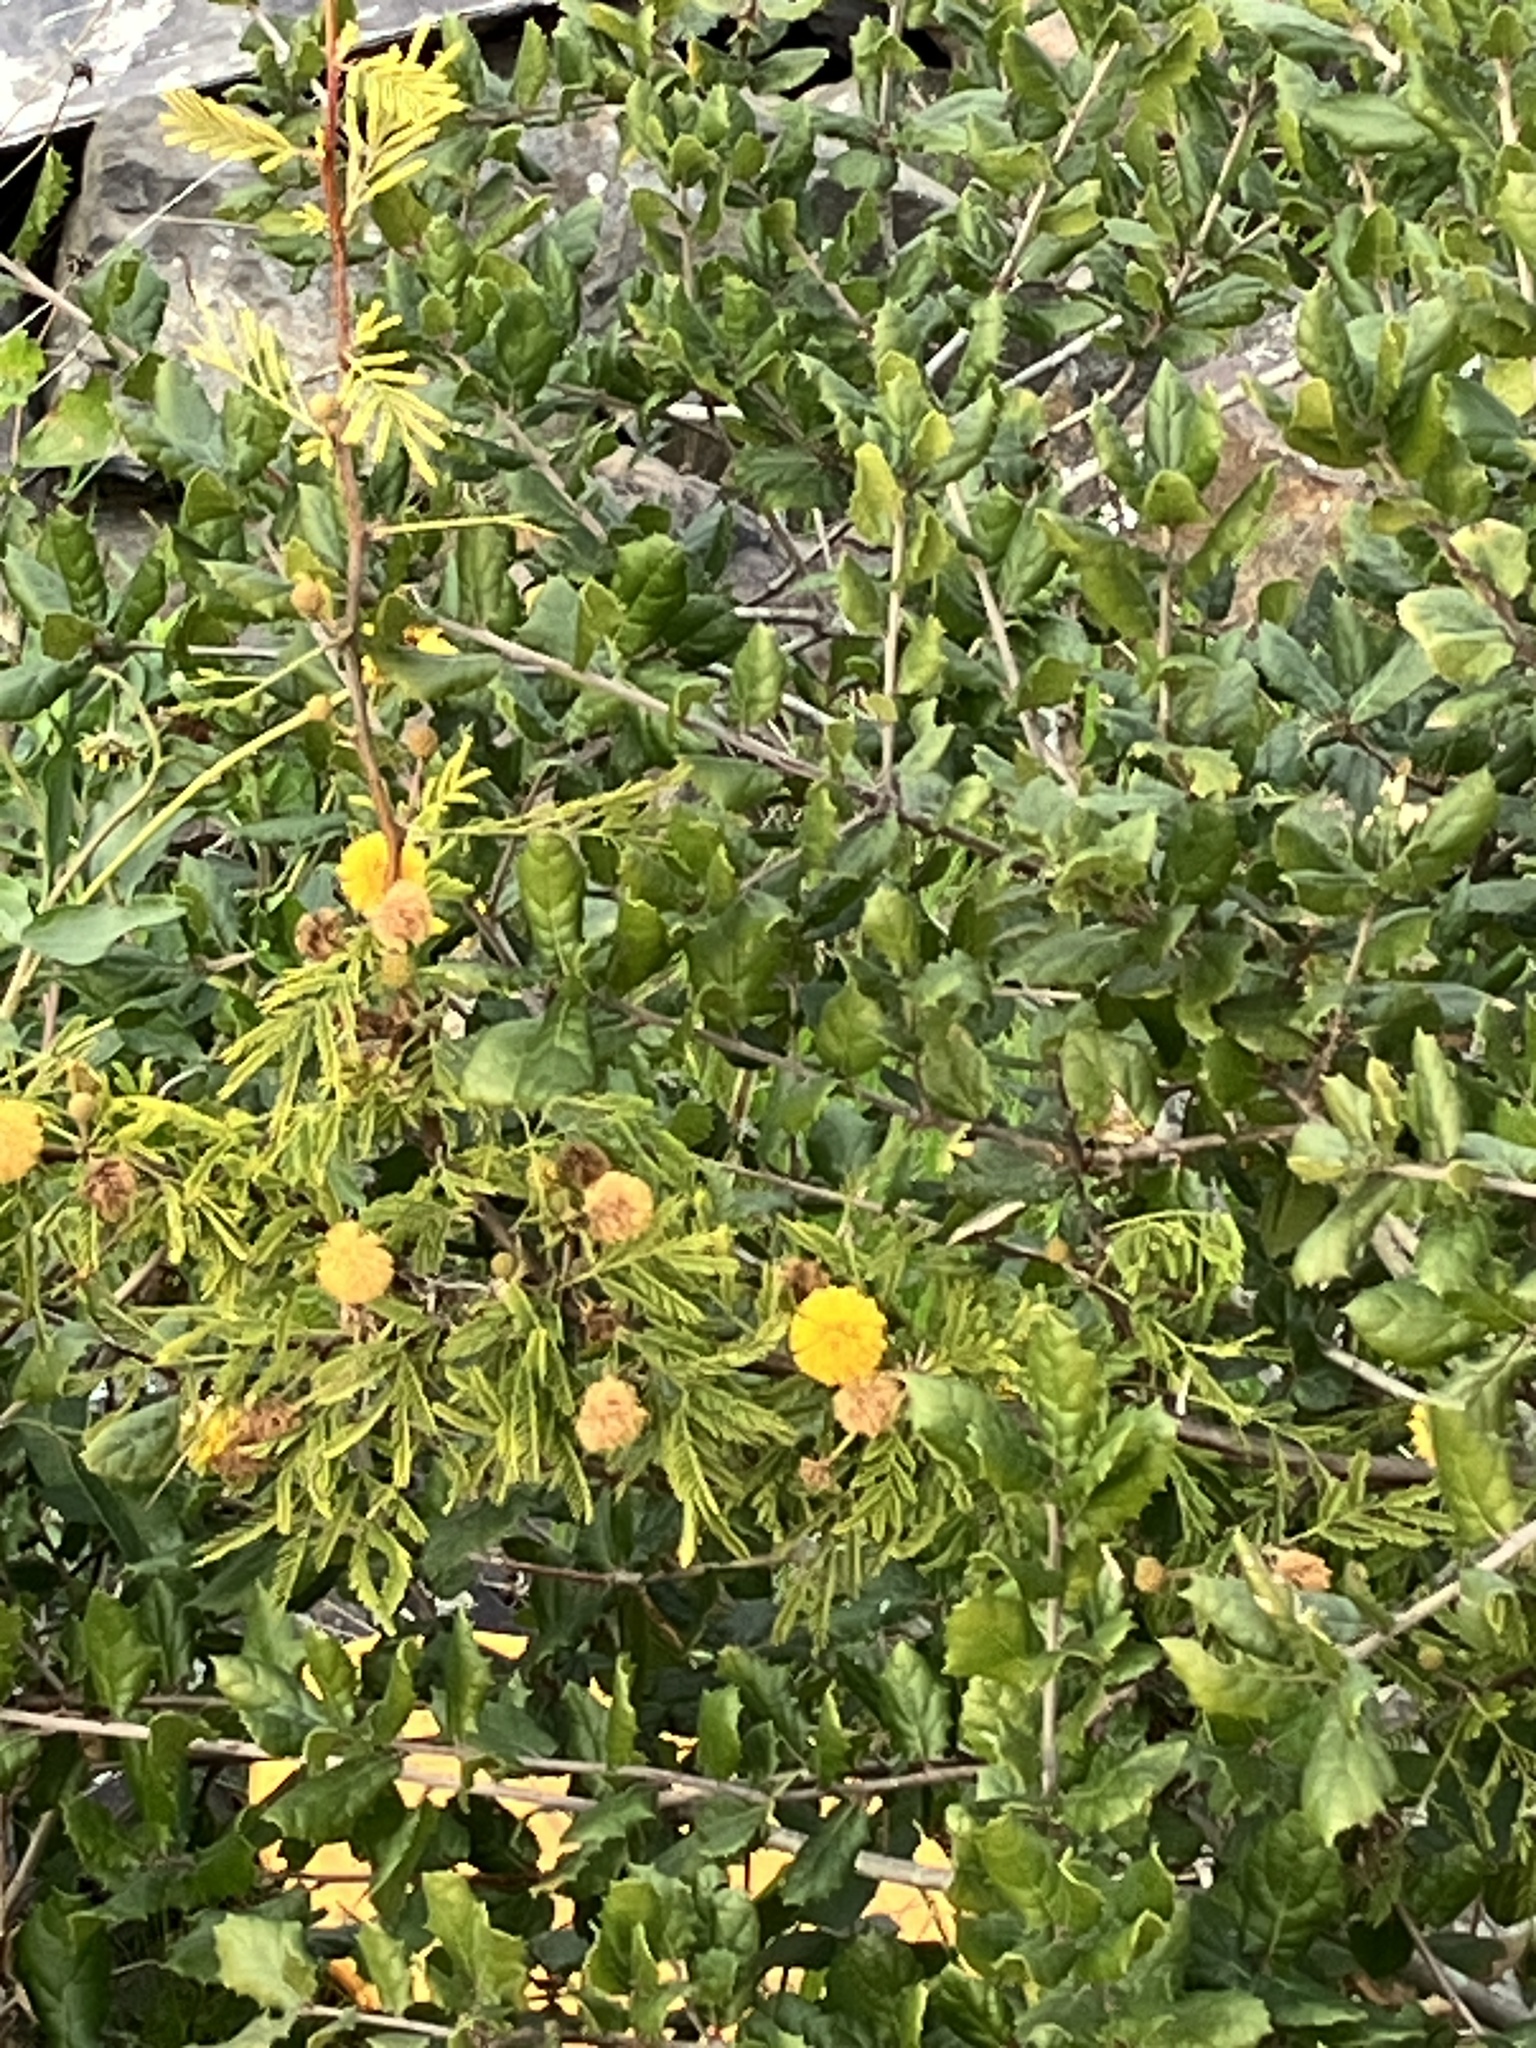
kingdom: Plantae
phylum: Tracheophyta
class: Magnoliopsida
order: Fabales
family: Fabaceae
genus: Vachellia
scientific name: Vachellia farnesiana
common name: Sweet acacia
